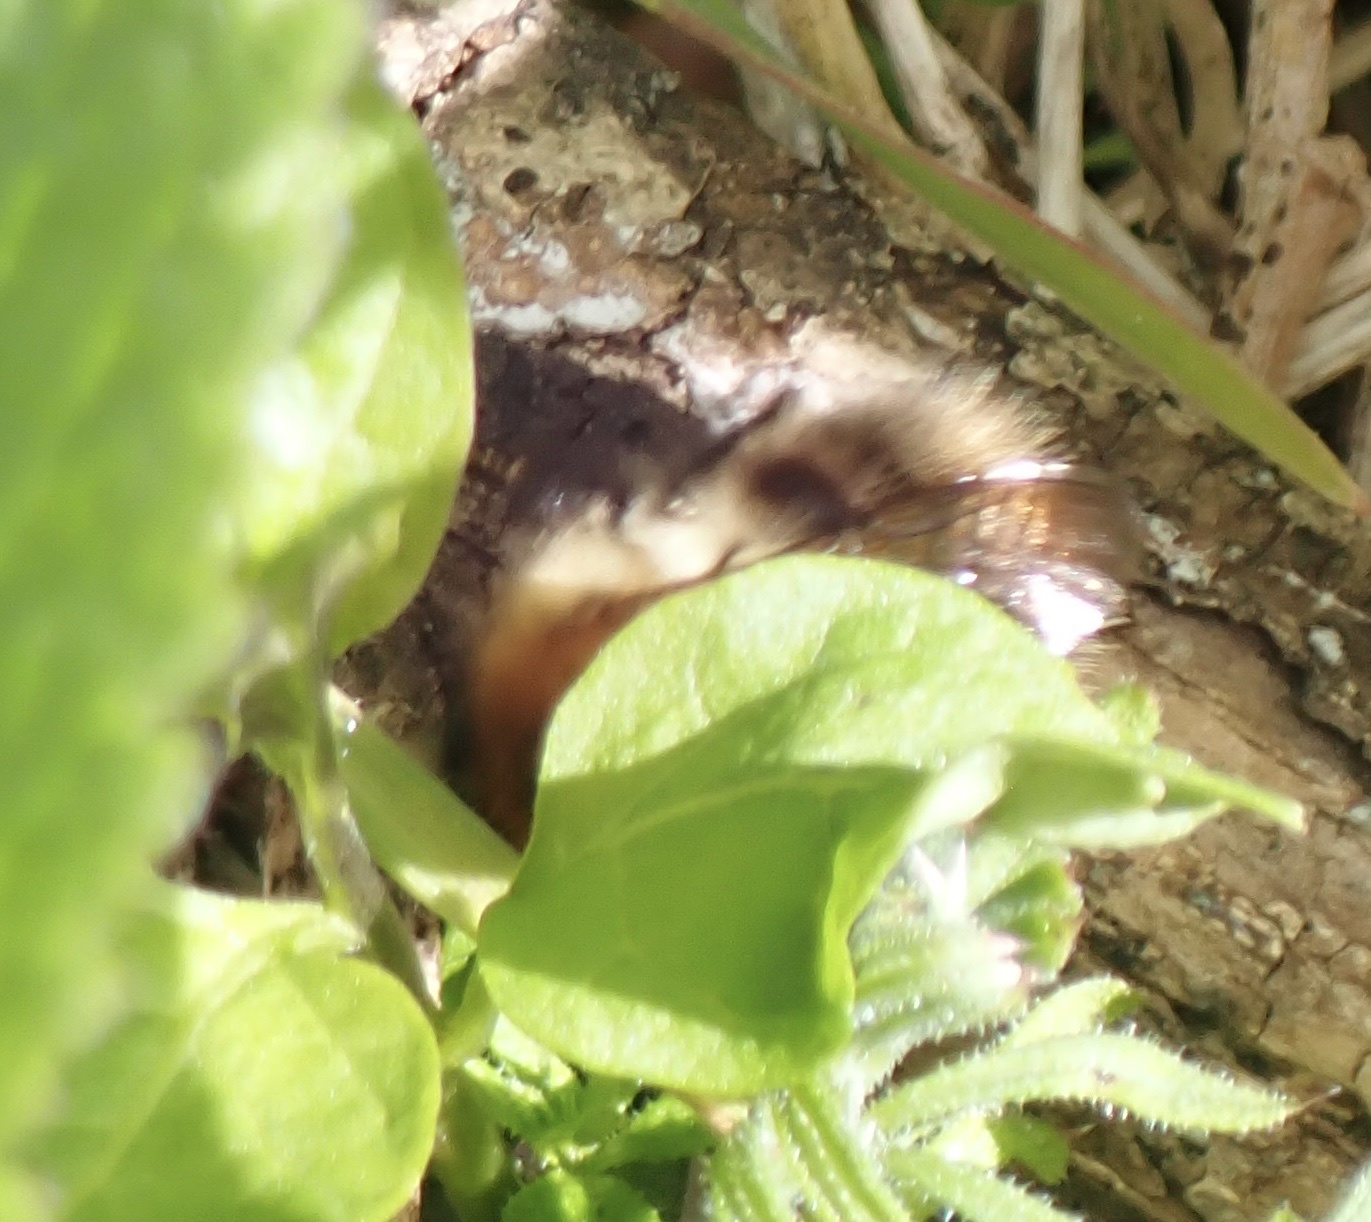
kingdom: Animalia
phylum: Arthropoda
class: Insecta
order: Hymenoptera
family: Apidae
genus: Bombus
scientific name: Bombus pascuorum
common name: Common carder bee
